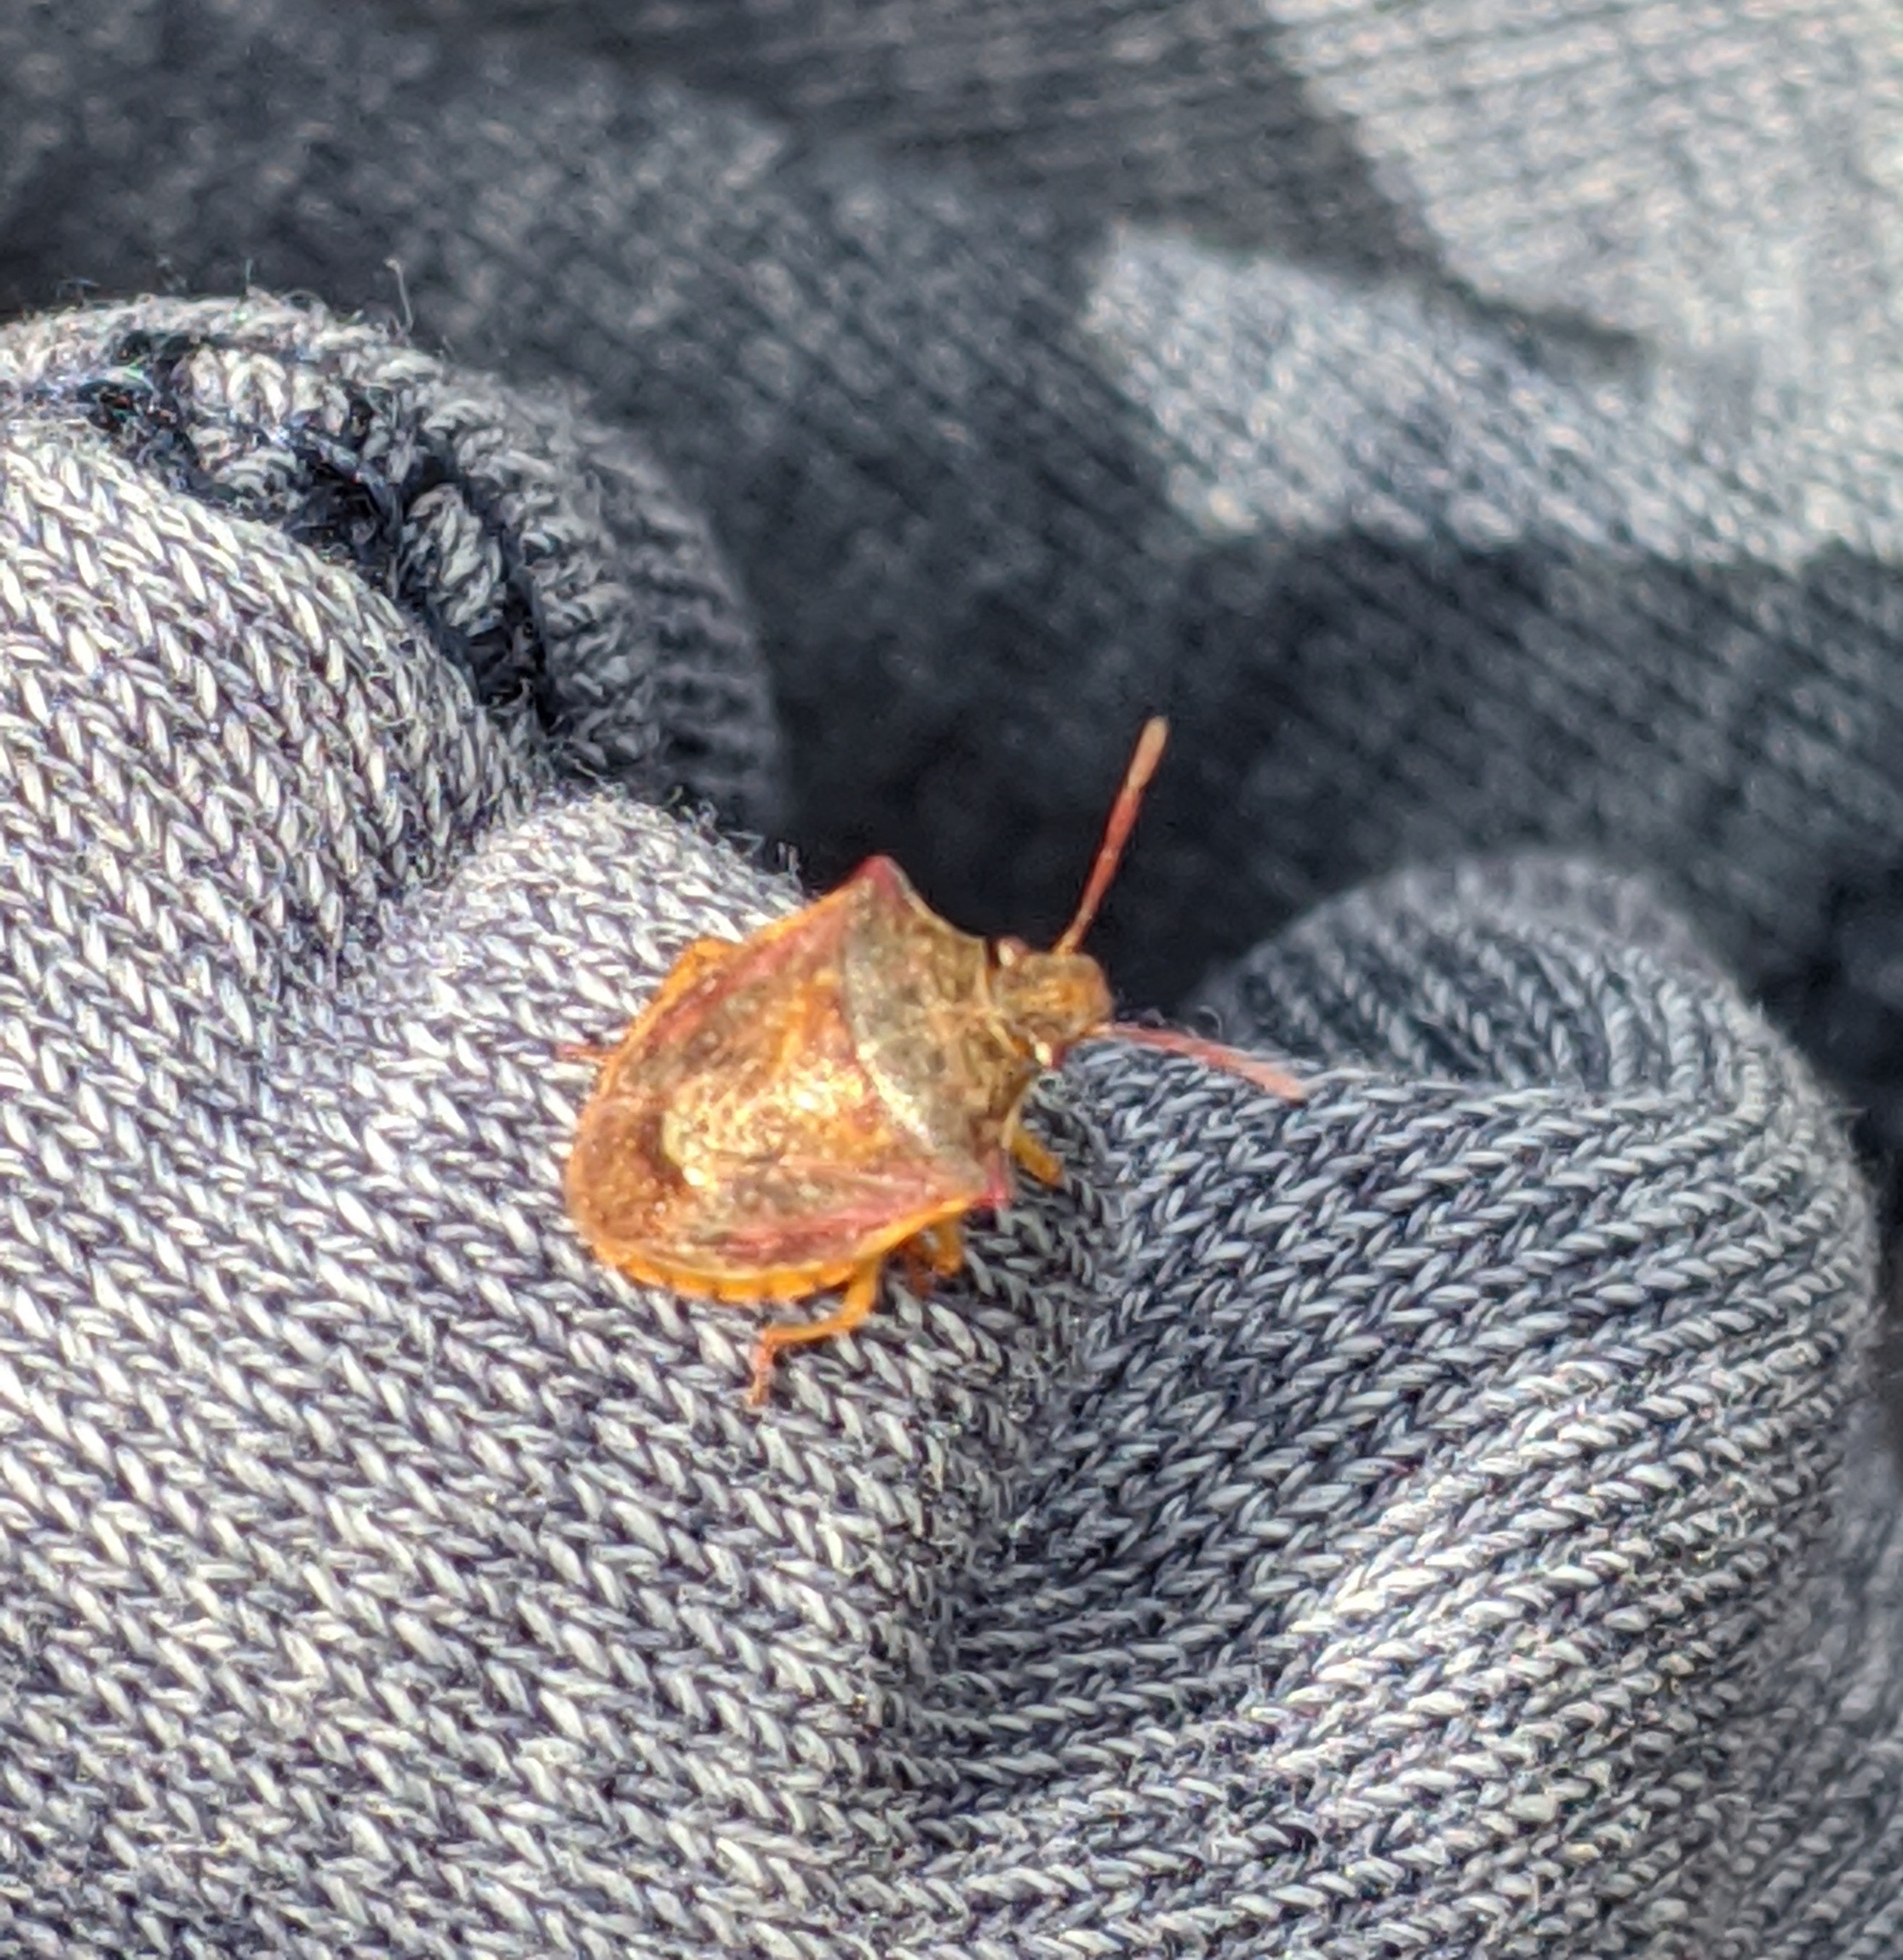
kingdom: Animalia
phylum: Arthropoda
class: Insecta
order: Hemiptera
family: Pentatomidae
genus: Dendrocoris
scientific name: Dendrocoris humeralis
